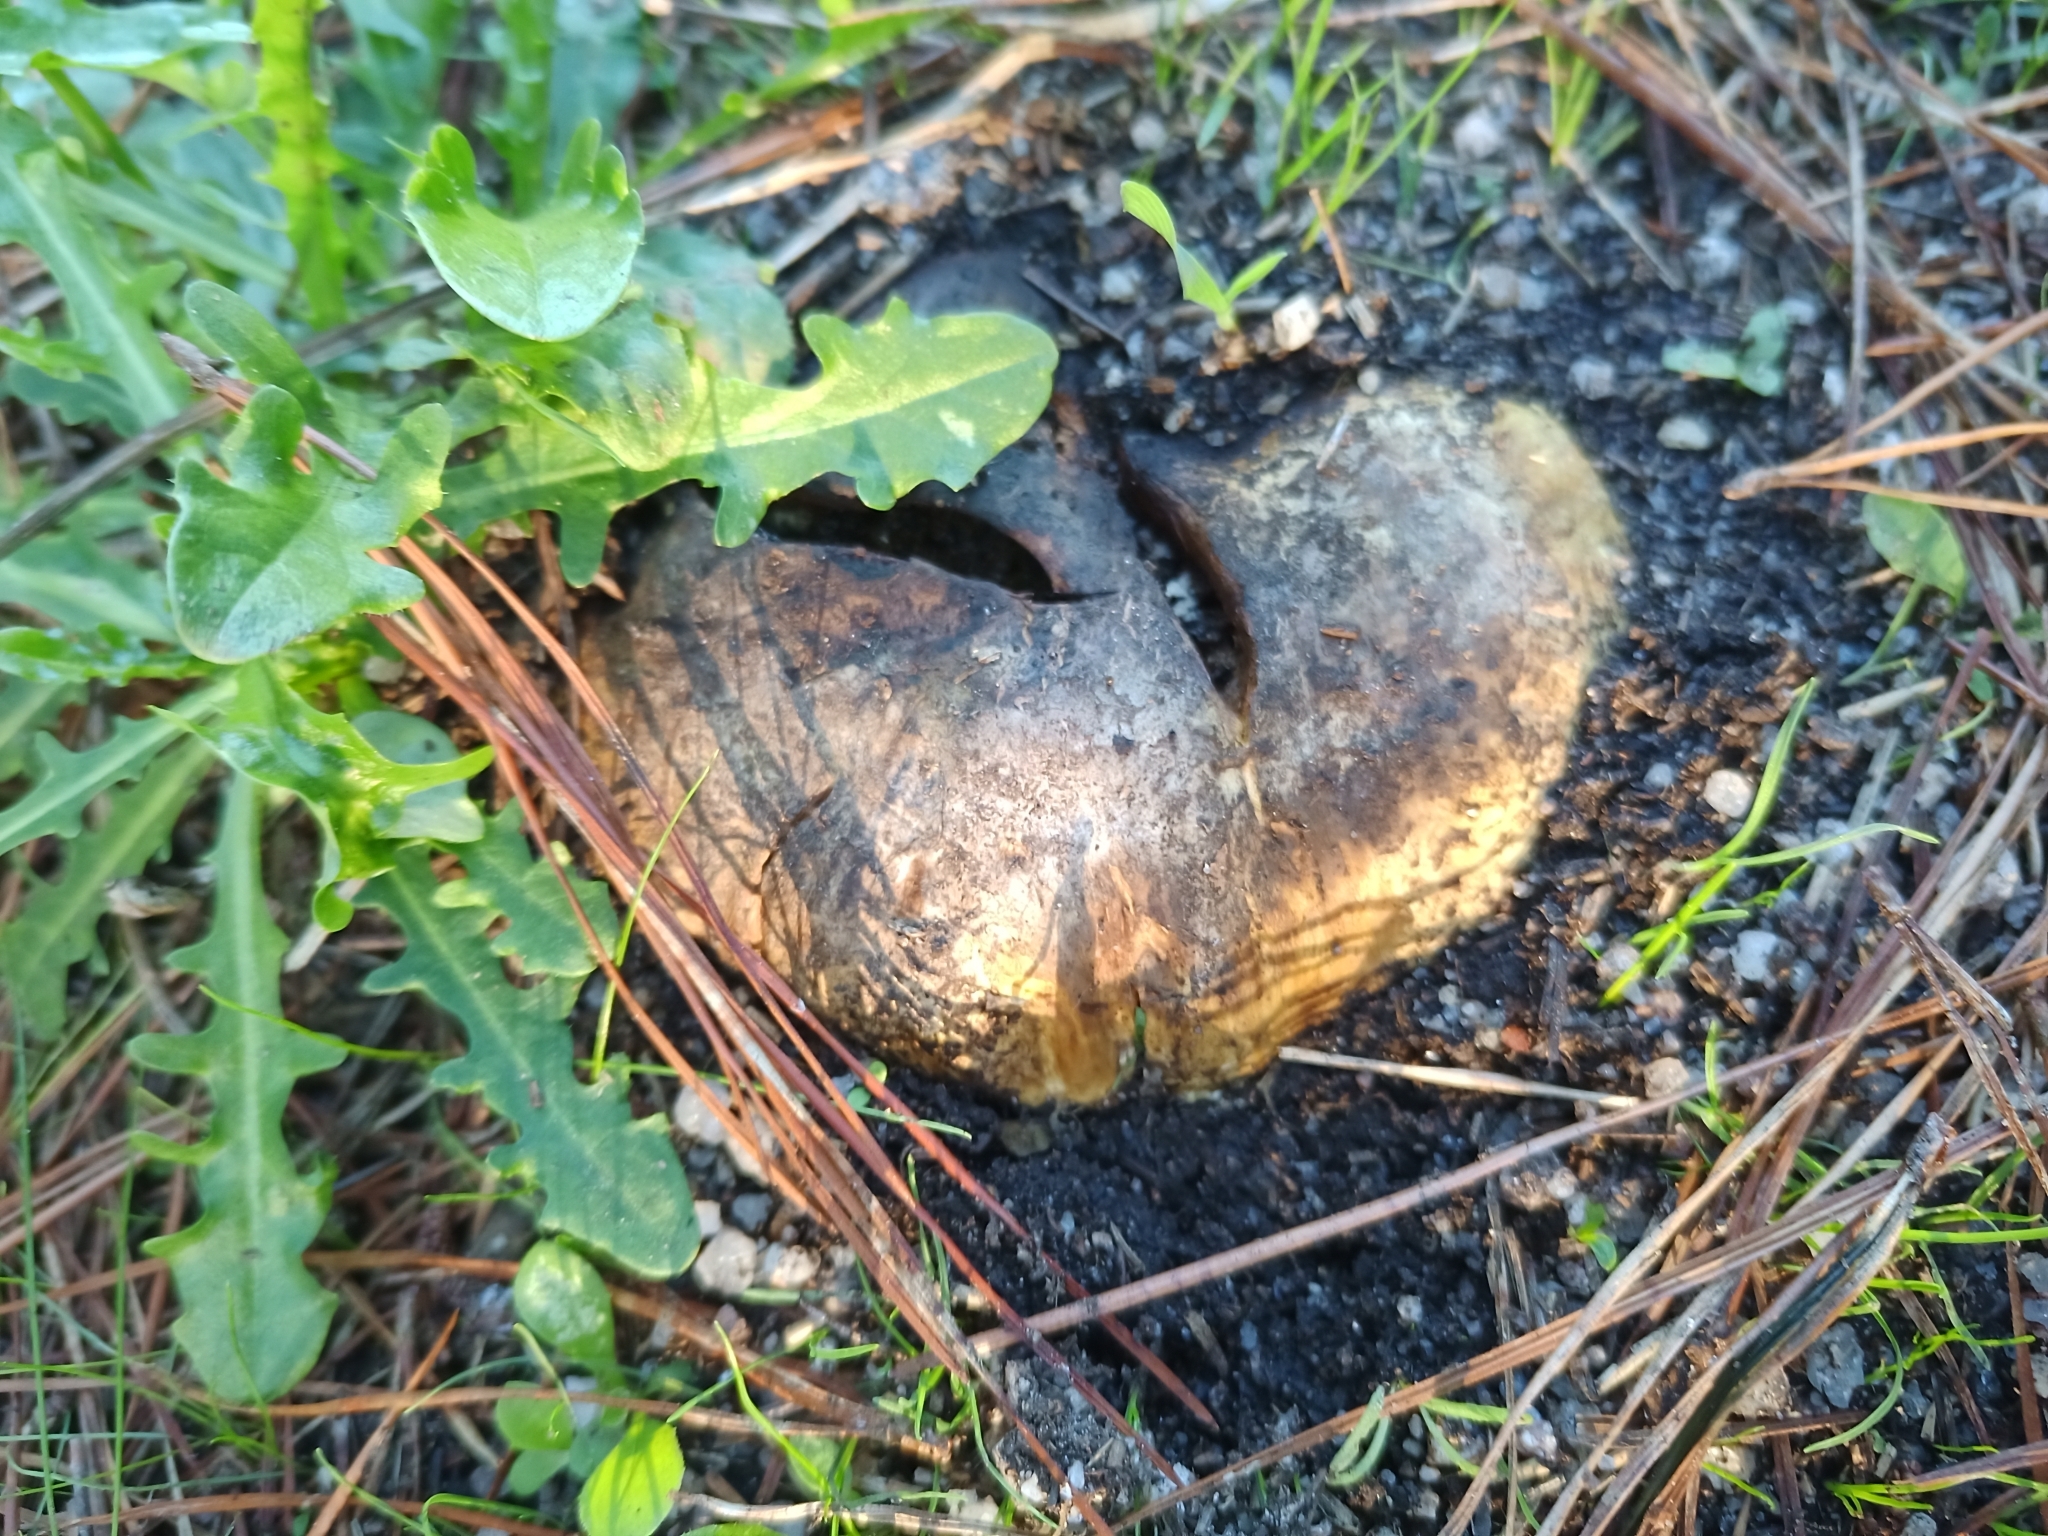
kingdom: Fungi
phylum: Basidiomycota
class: Agaricomycetes
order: Boletales
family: Sclerodermataceae
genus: Scleroderma
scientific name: Scleroderma polyrhizum
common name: Many-rooted earthball
